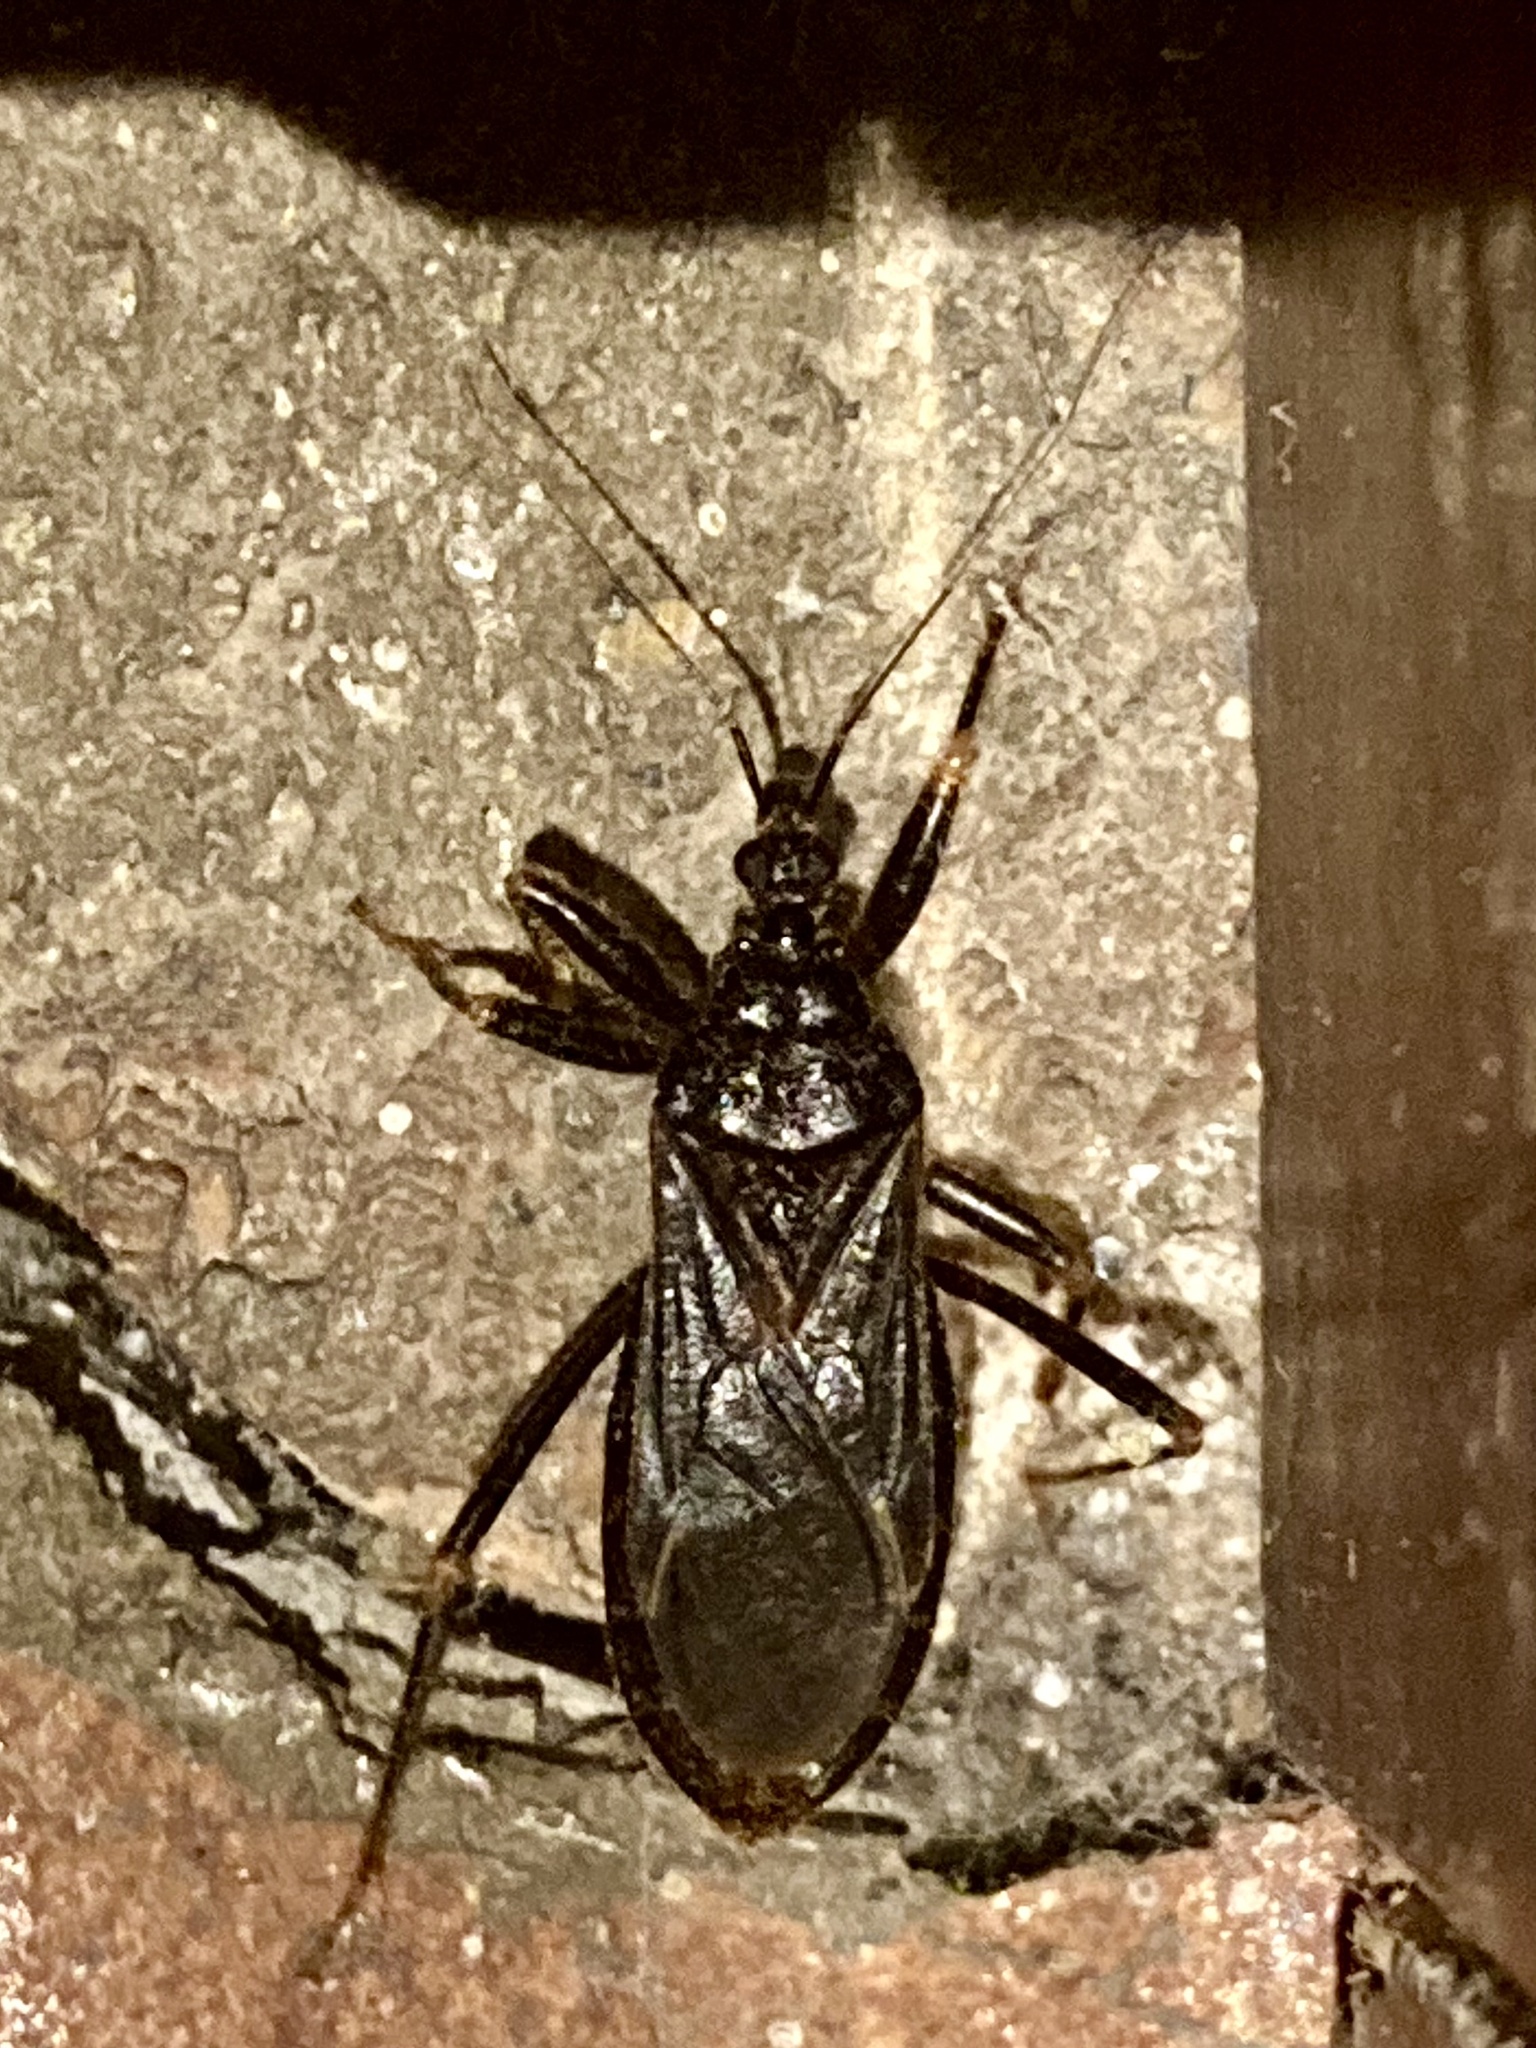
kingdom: Animalia
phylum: Arthropoda
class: Insecta
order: Hemiptera
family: Reduviidae
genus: Reduvius
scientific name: Reduvius personatus
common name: Masked hunter
